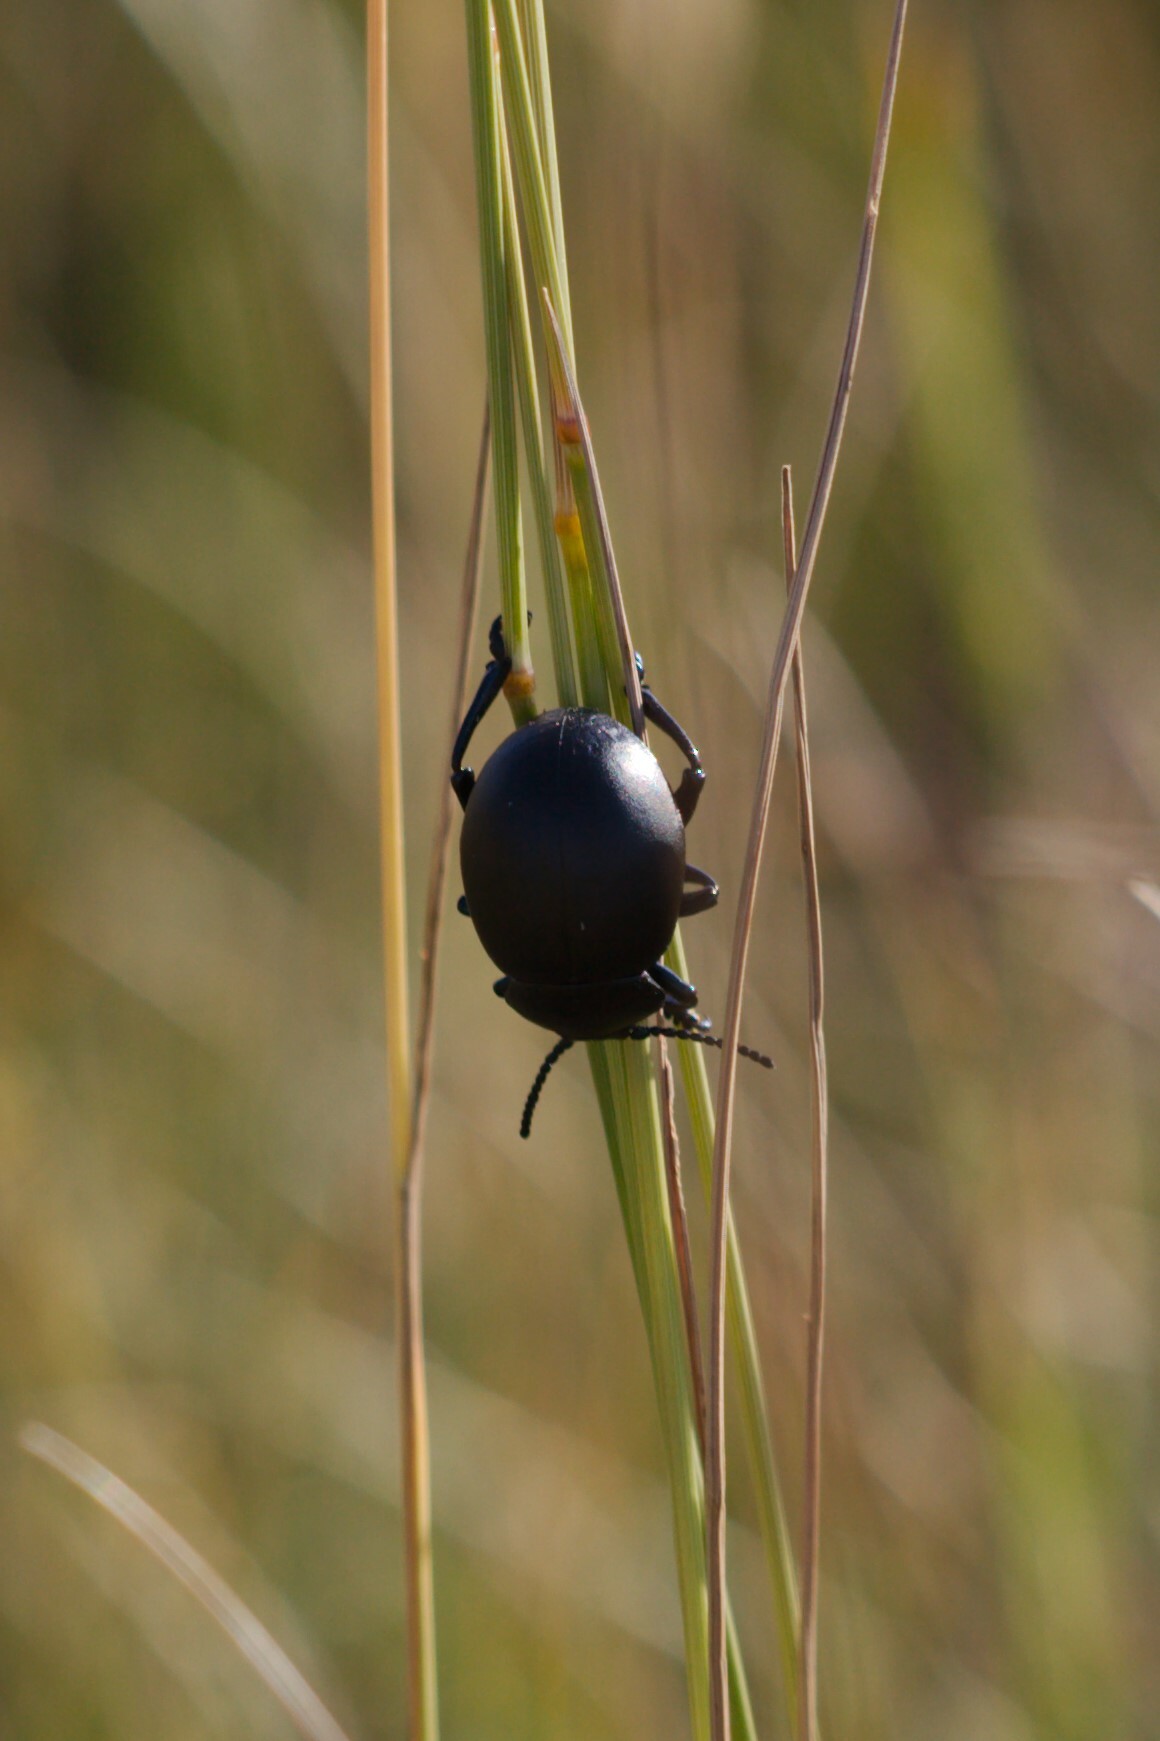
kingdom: Animalia
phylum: Arthropoda
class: Insecta
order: Coleoptera
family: Chrysomelidae
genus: Timarcha
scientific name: Timarcha tenebricosa
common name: Bloody-nosed beetle
